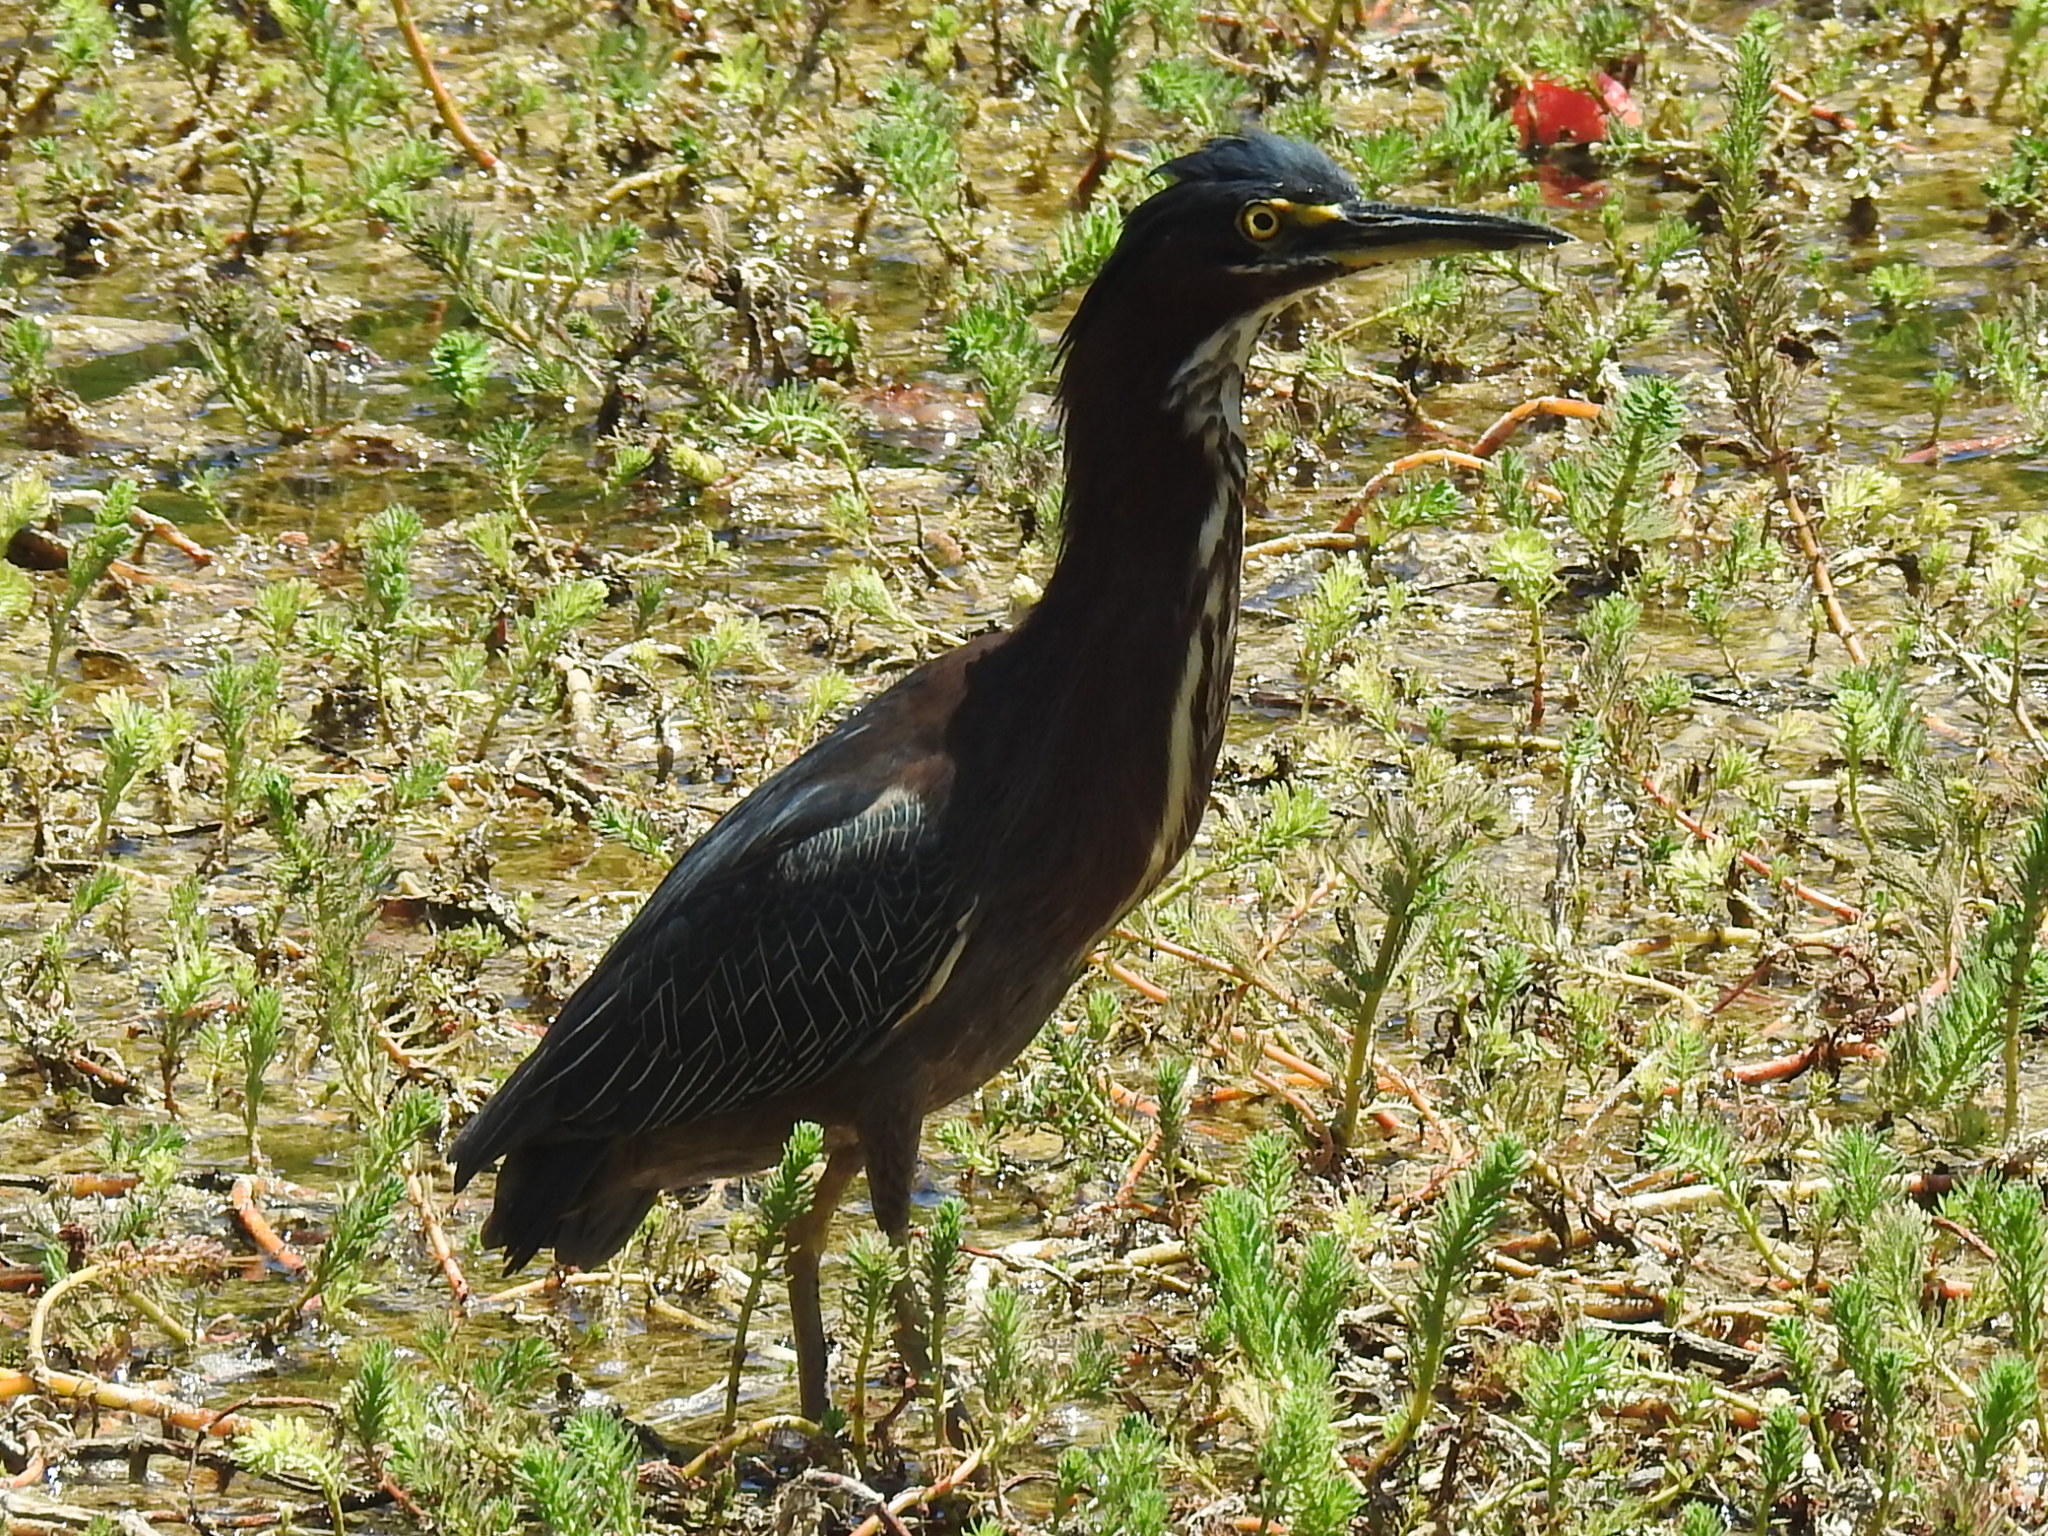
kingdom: Animalia
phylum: Chordata
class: Aves
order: Pelecaniformes
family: Ardeidae
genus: Butorides
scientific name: Butorides virescens
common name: Green heron
